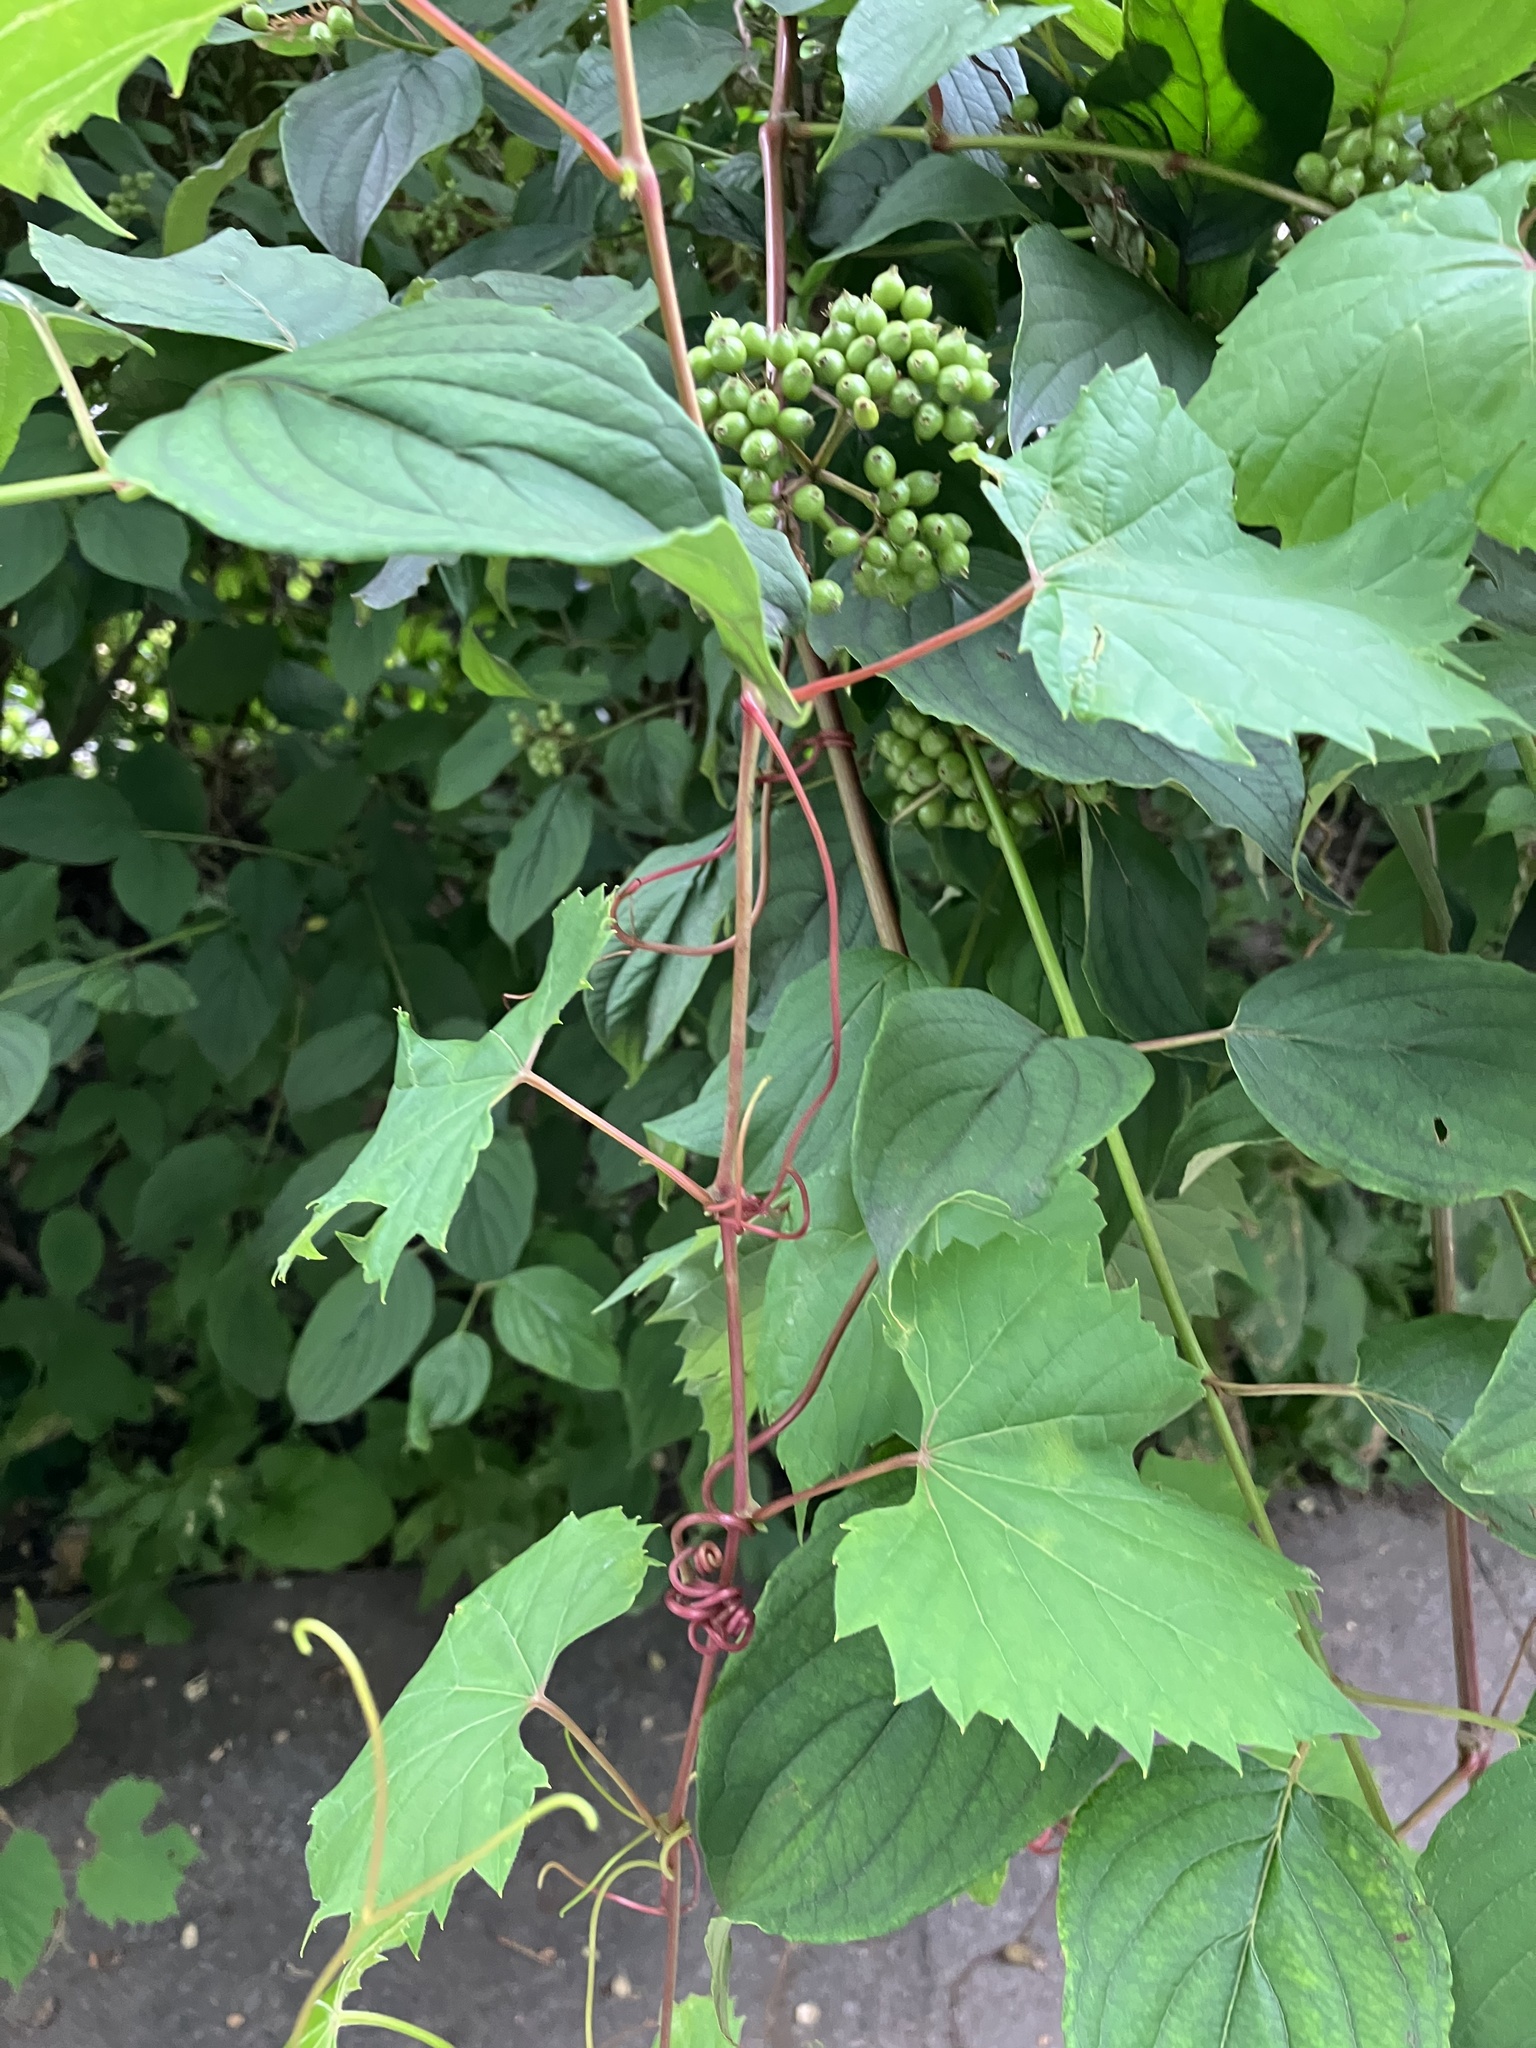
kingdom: Plantae
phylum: Tracheophyta
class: Magnoliopsida
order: Vitales
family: Vitaceae
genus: Vitis
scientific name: Vitis riparia
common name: Frost grape
